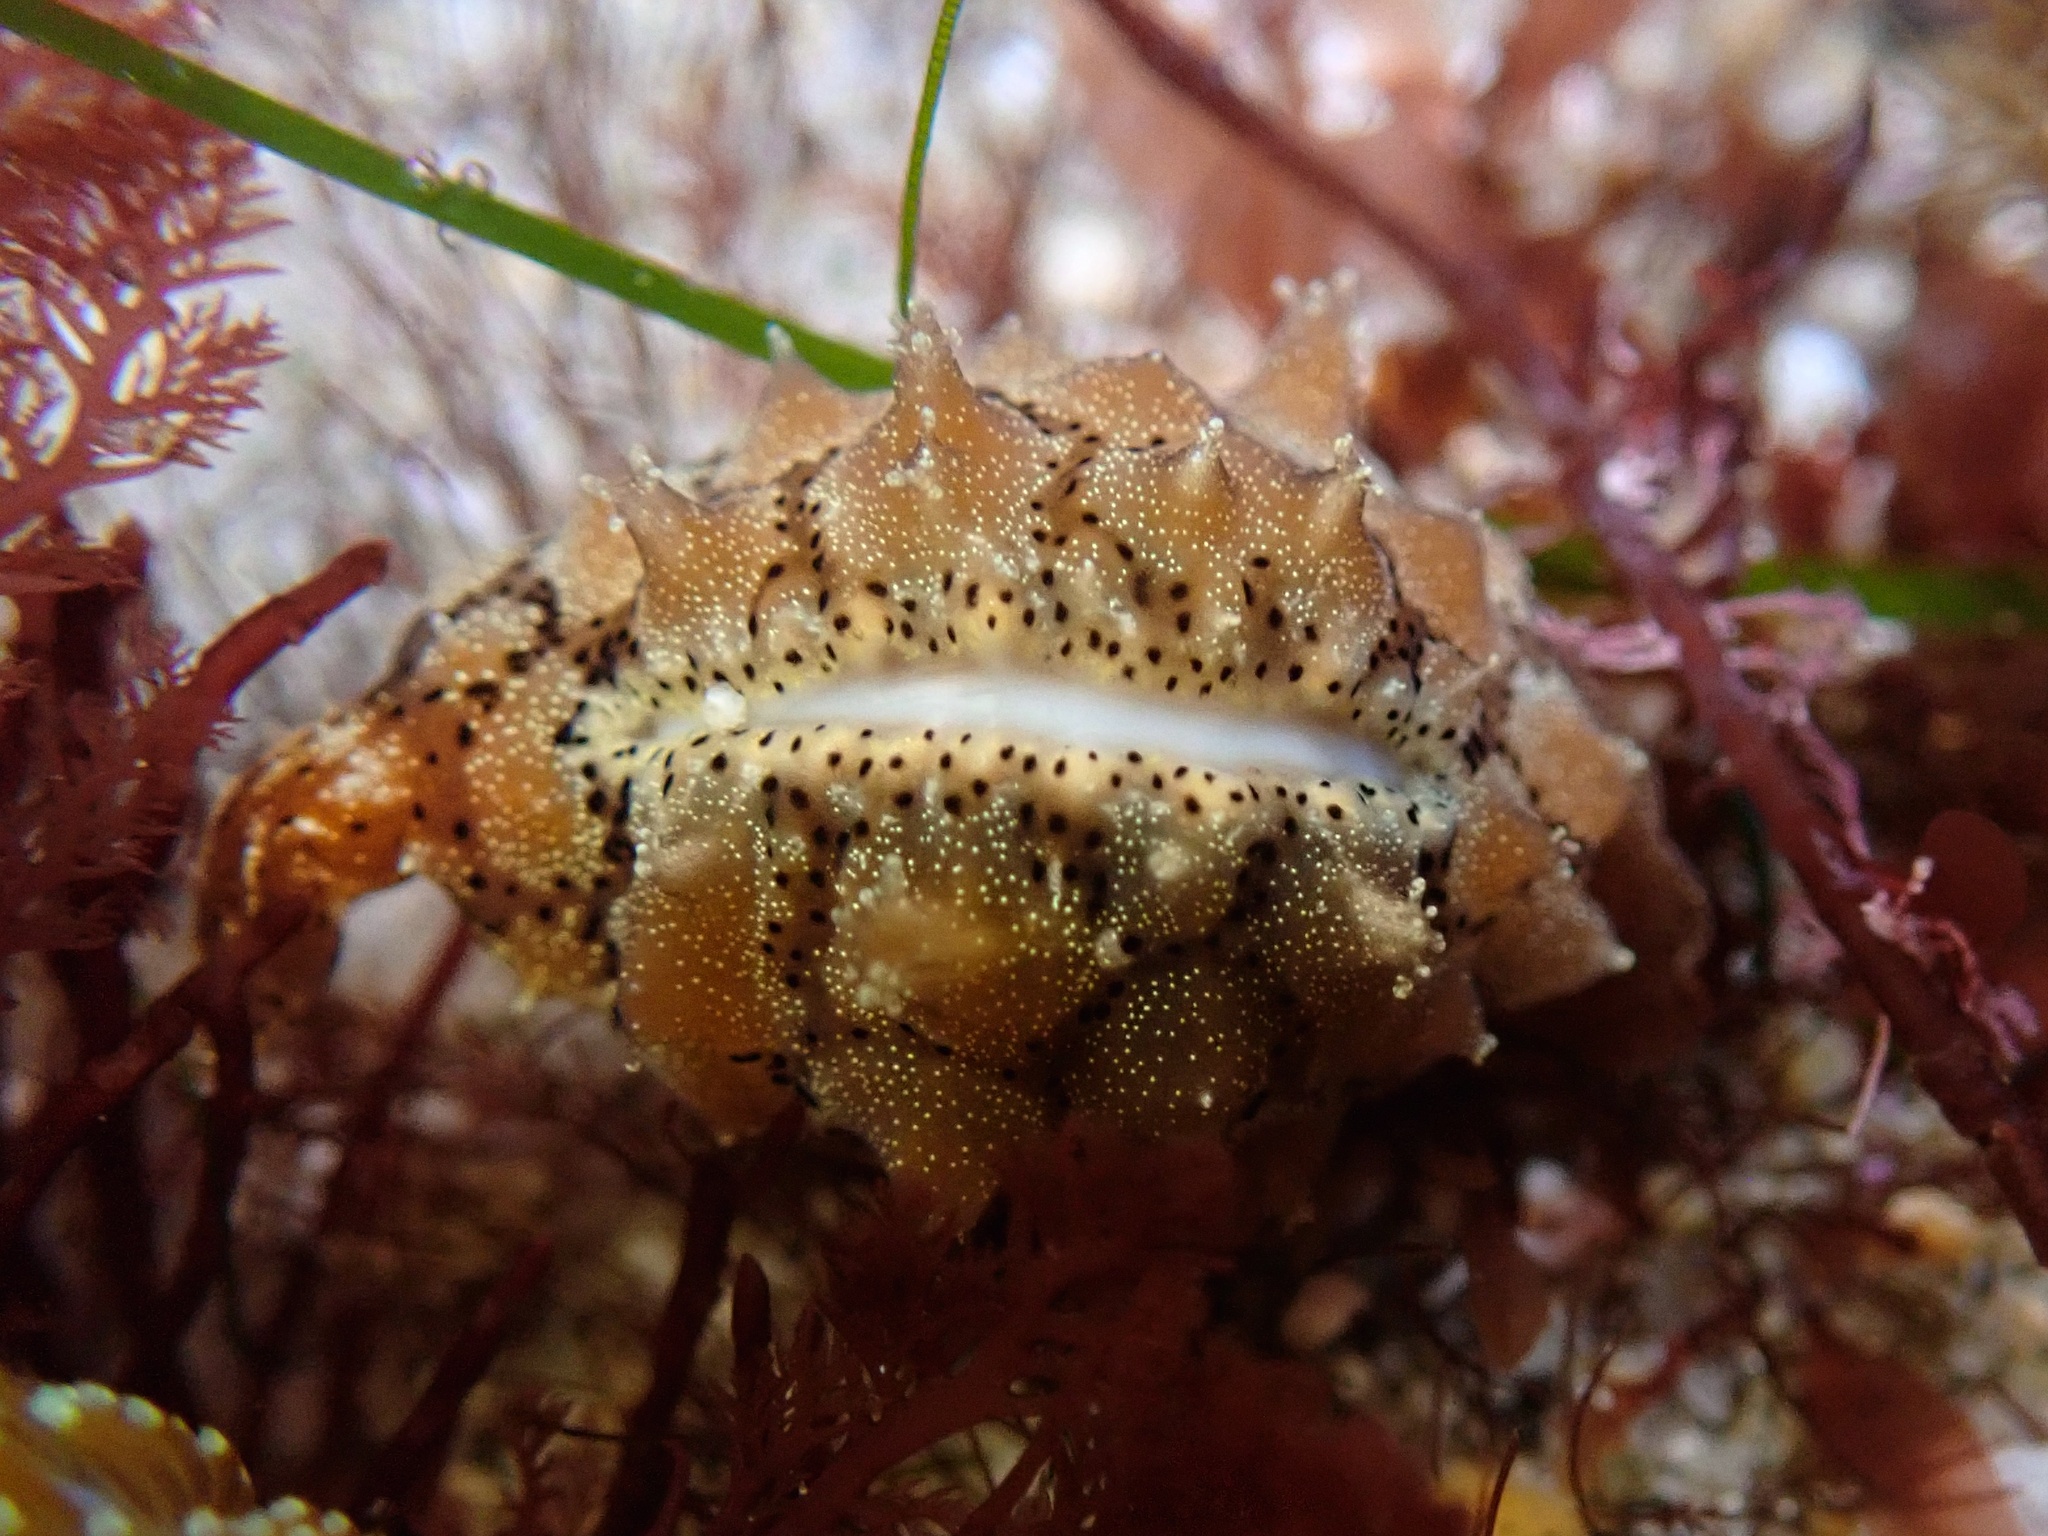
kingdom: Animalia
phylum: Mollusca
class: Gastropoda
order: Littorinimorpha
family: Triviidae
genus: Pusula
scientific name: Pusula solandri
